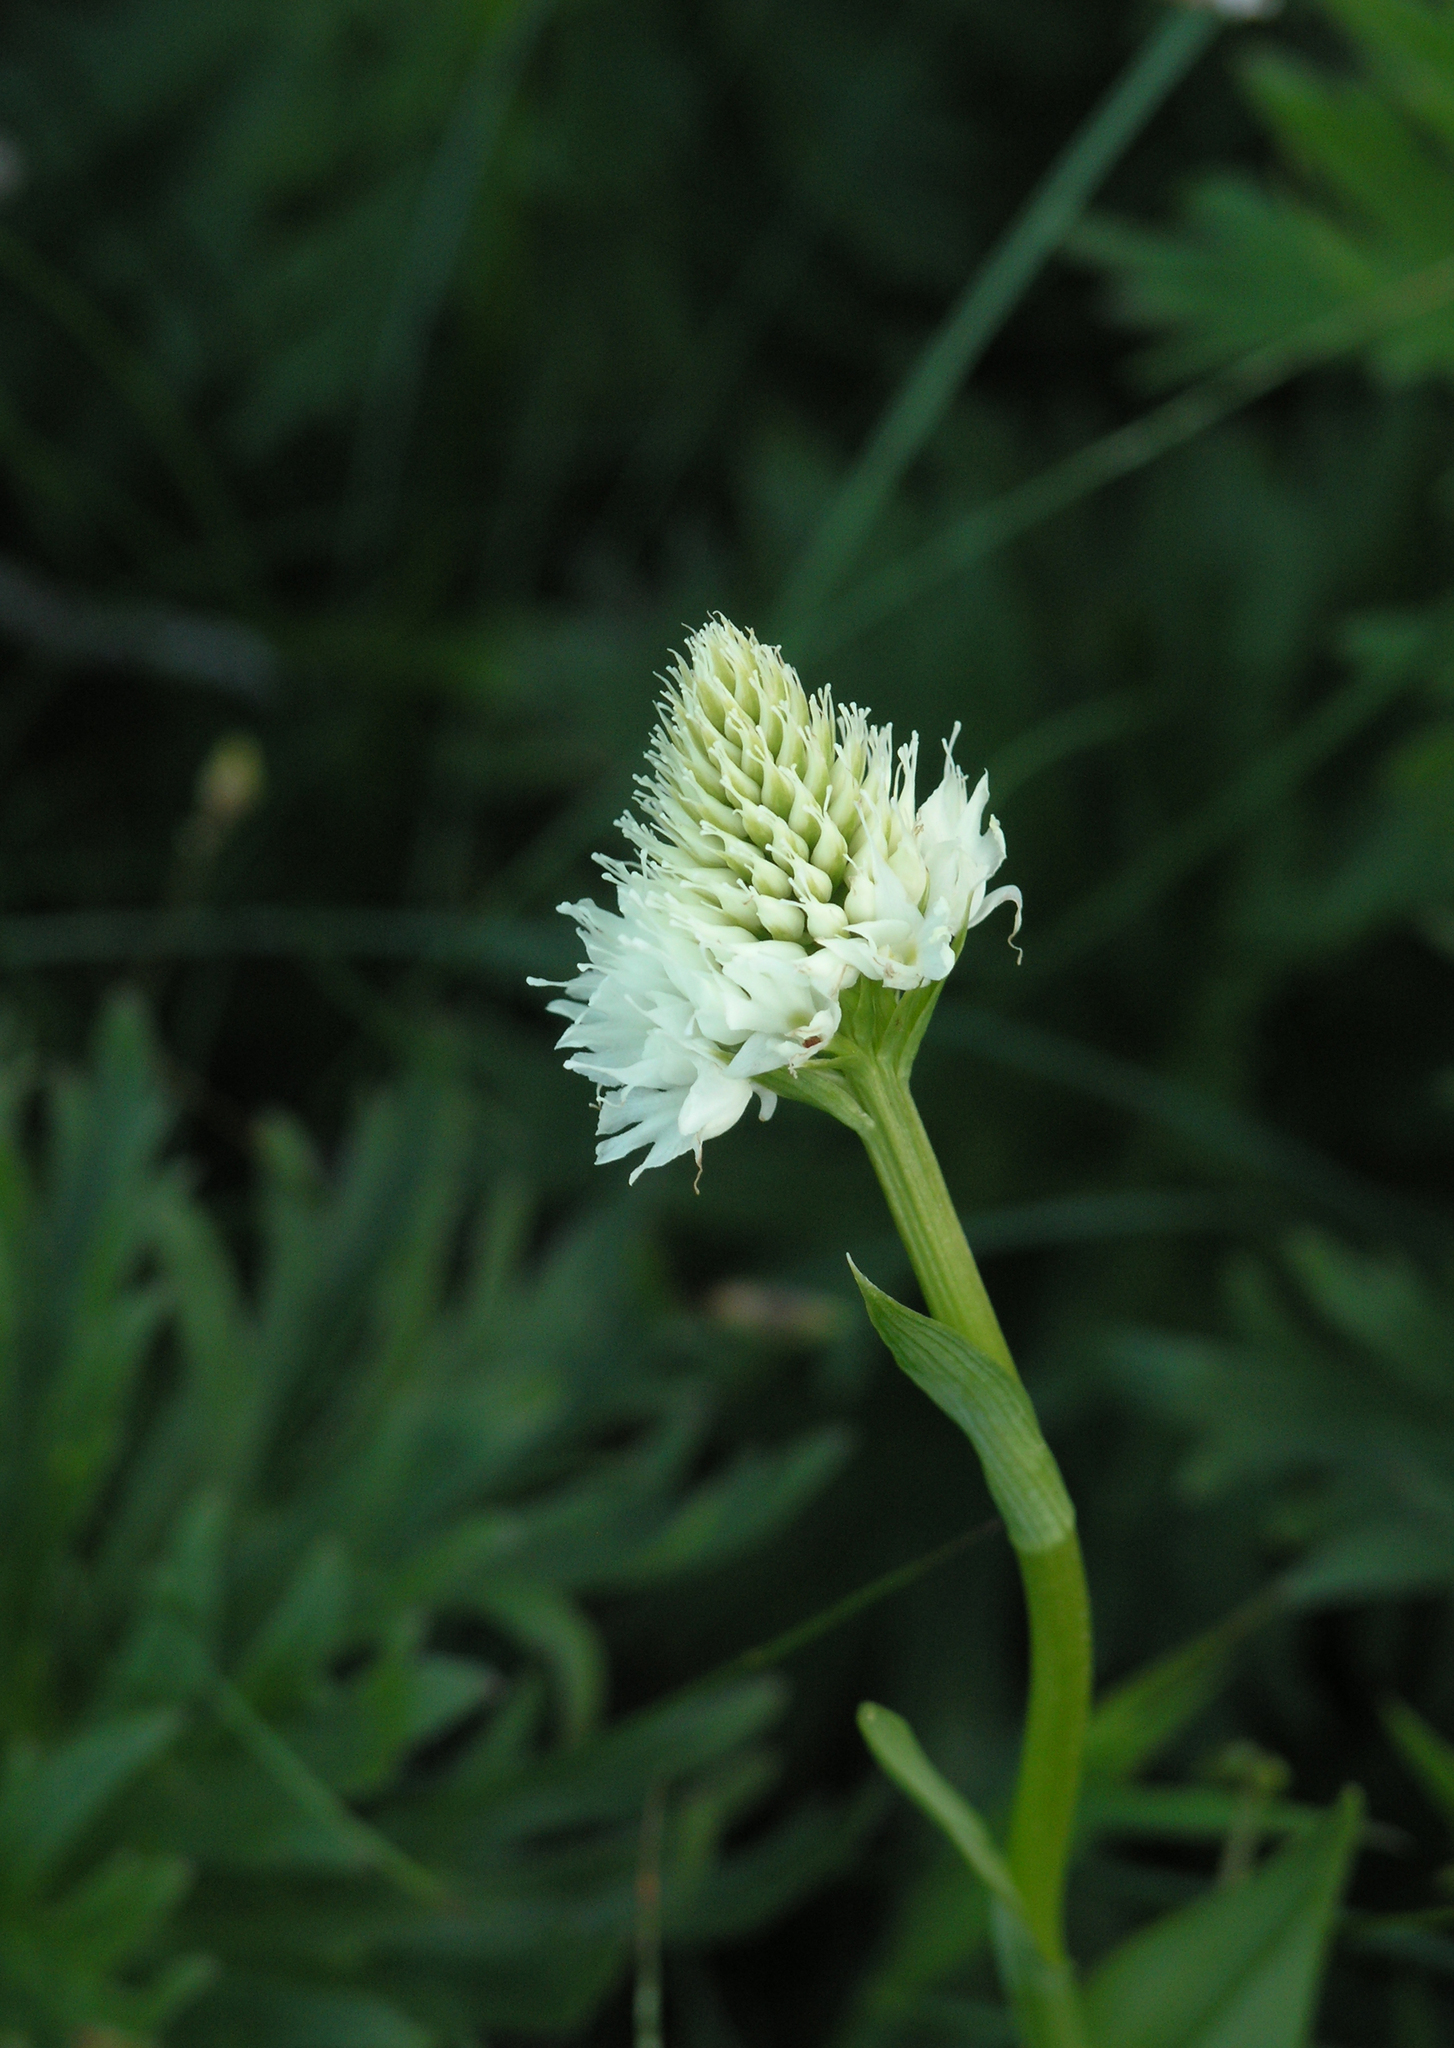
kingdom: Plantae
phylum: Tracheophyta
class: Liliopsida
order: Asparagales
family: Orchidaceae
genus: Traunsteinera
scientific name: Traunsteinera sphaerica
